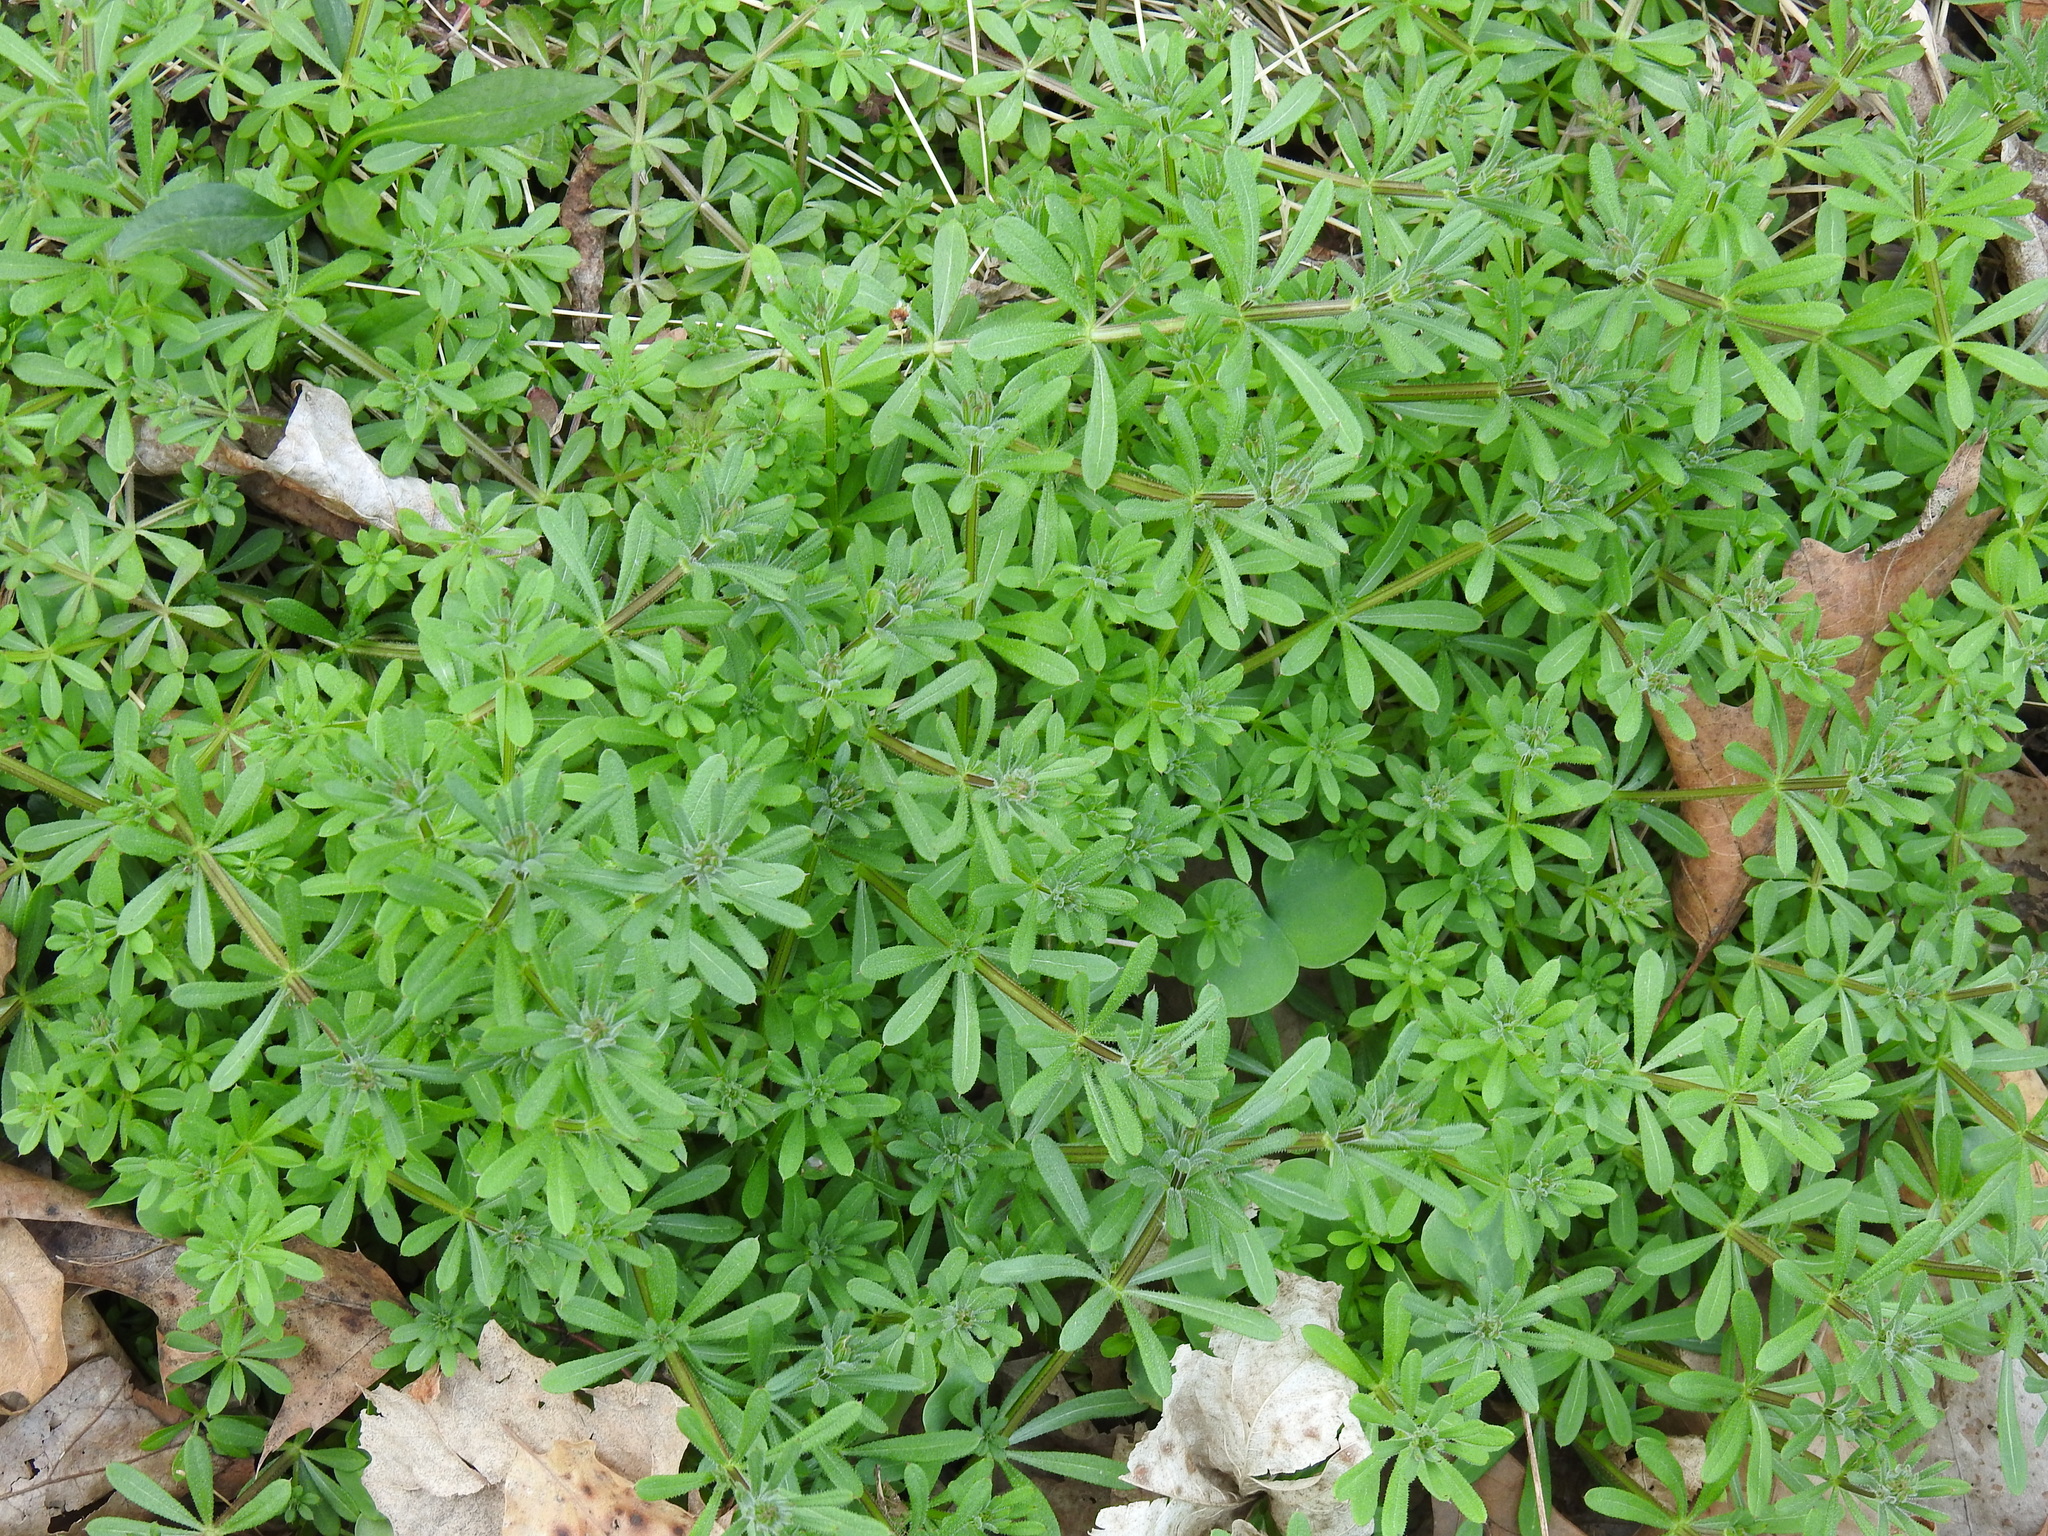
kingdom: Plantae
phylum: Tracheophyta
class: Magnoliopsida
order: Gentianales
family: Rubiaceae
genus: Galium
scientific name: Galium aparine
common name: Cleavers
